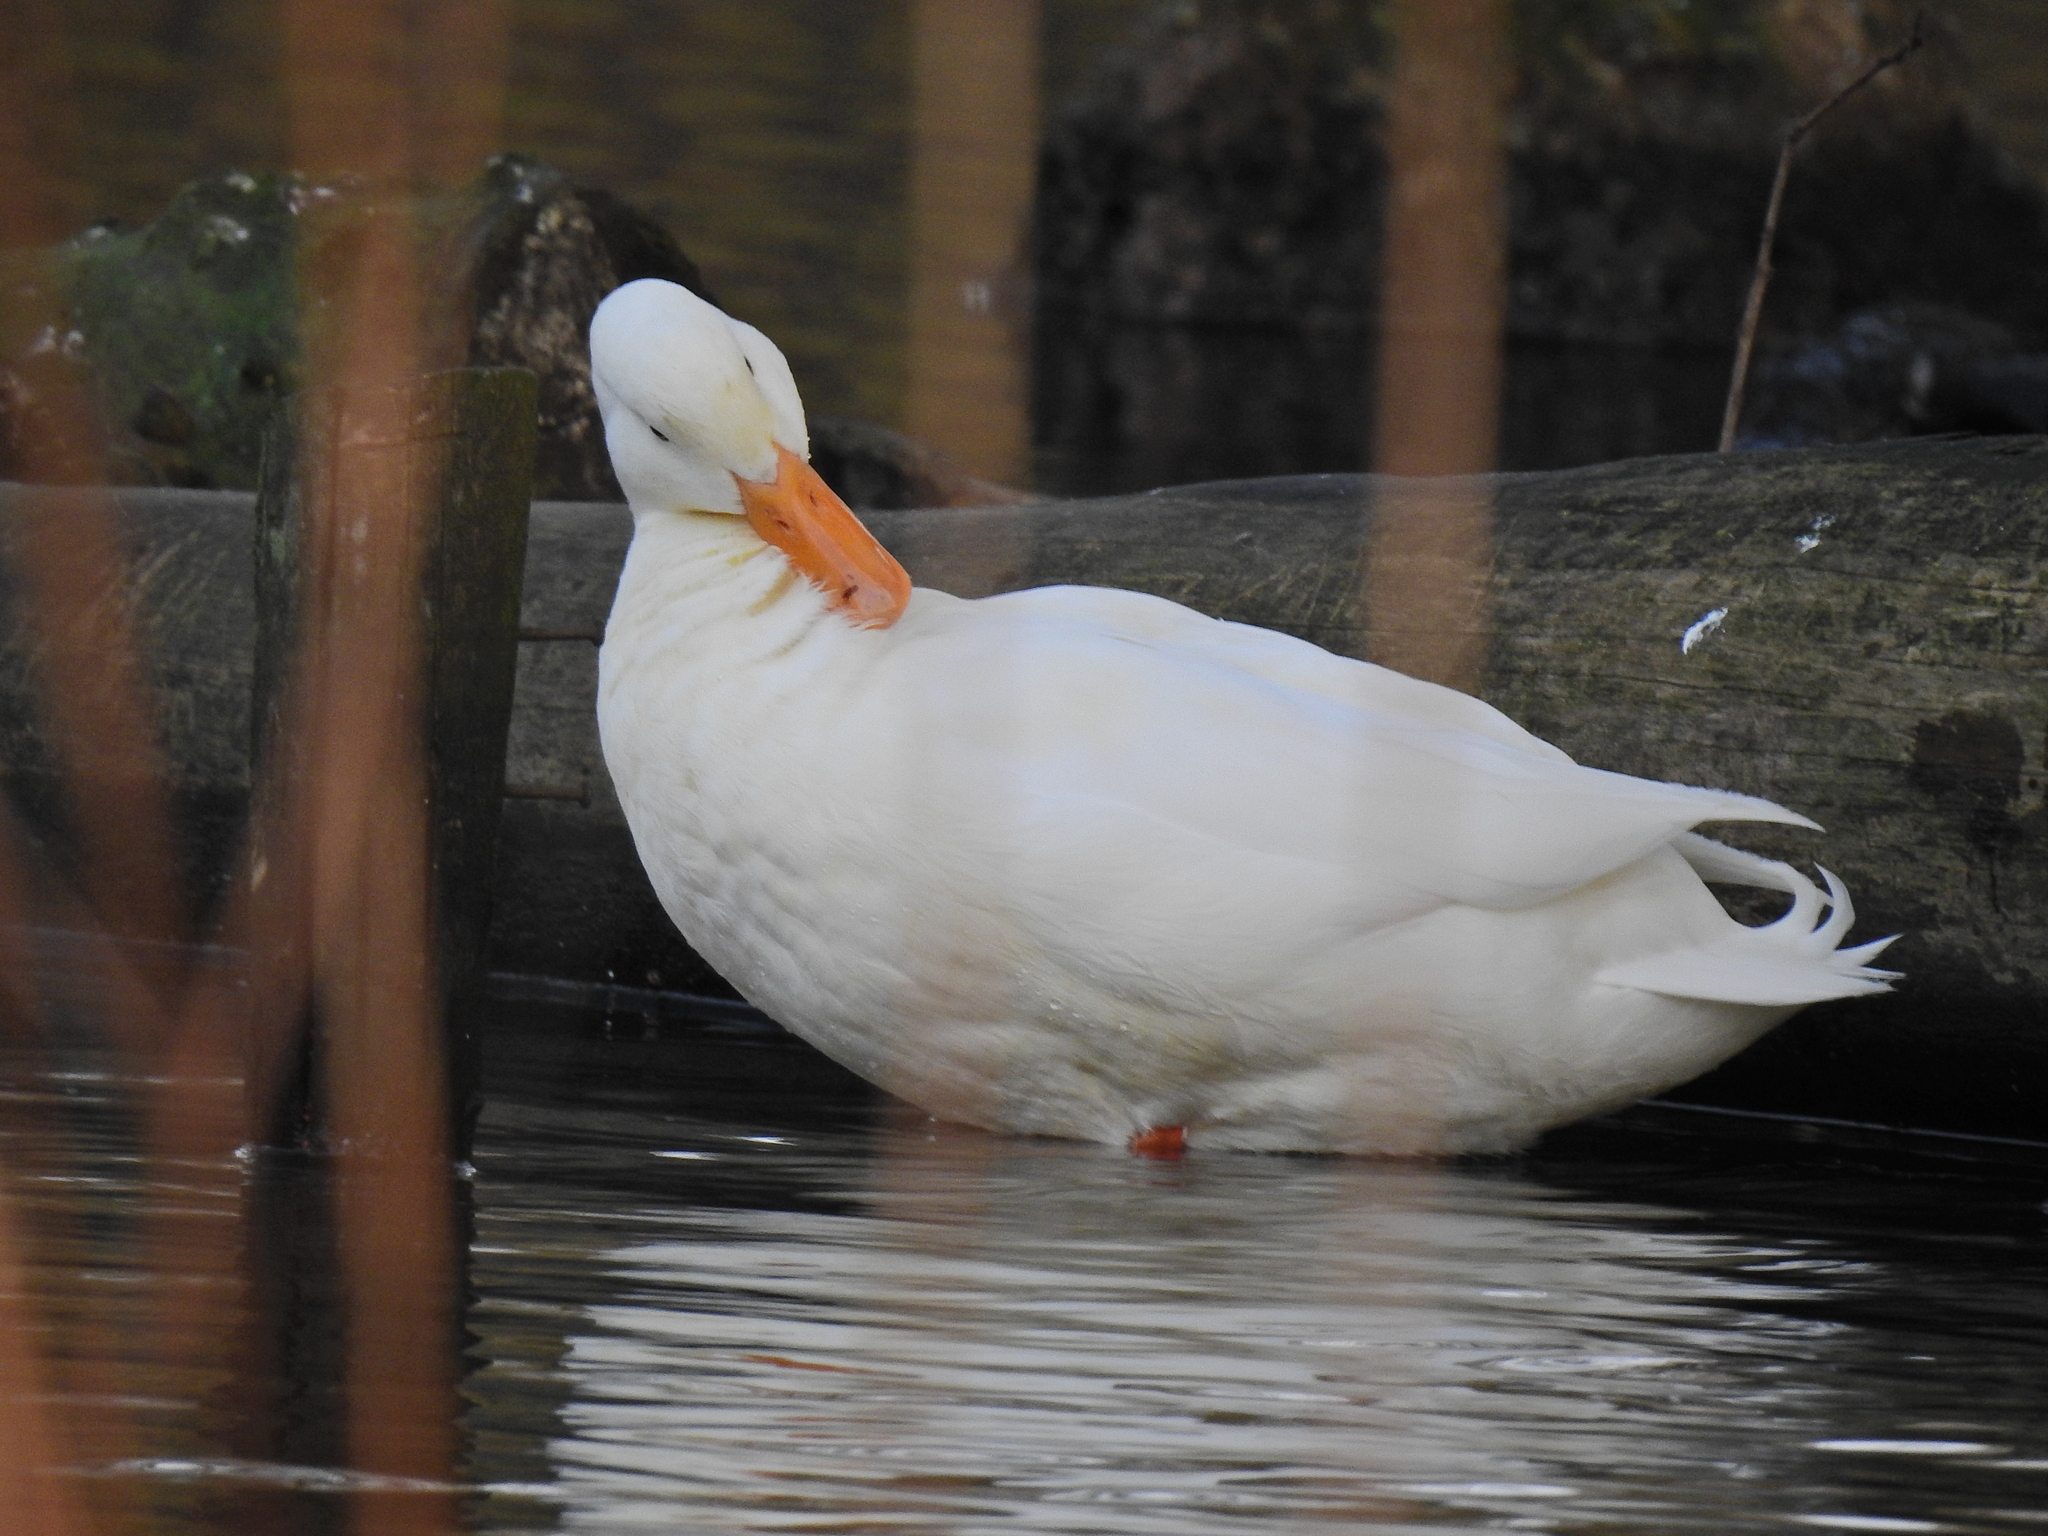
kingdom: Animalia
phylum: Chordata
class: Aves
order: Anseriformes
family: Anatidae
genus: Anas
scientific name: Anas platyrhynchos
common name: Mallard
